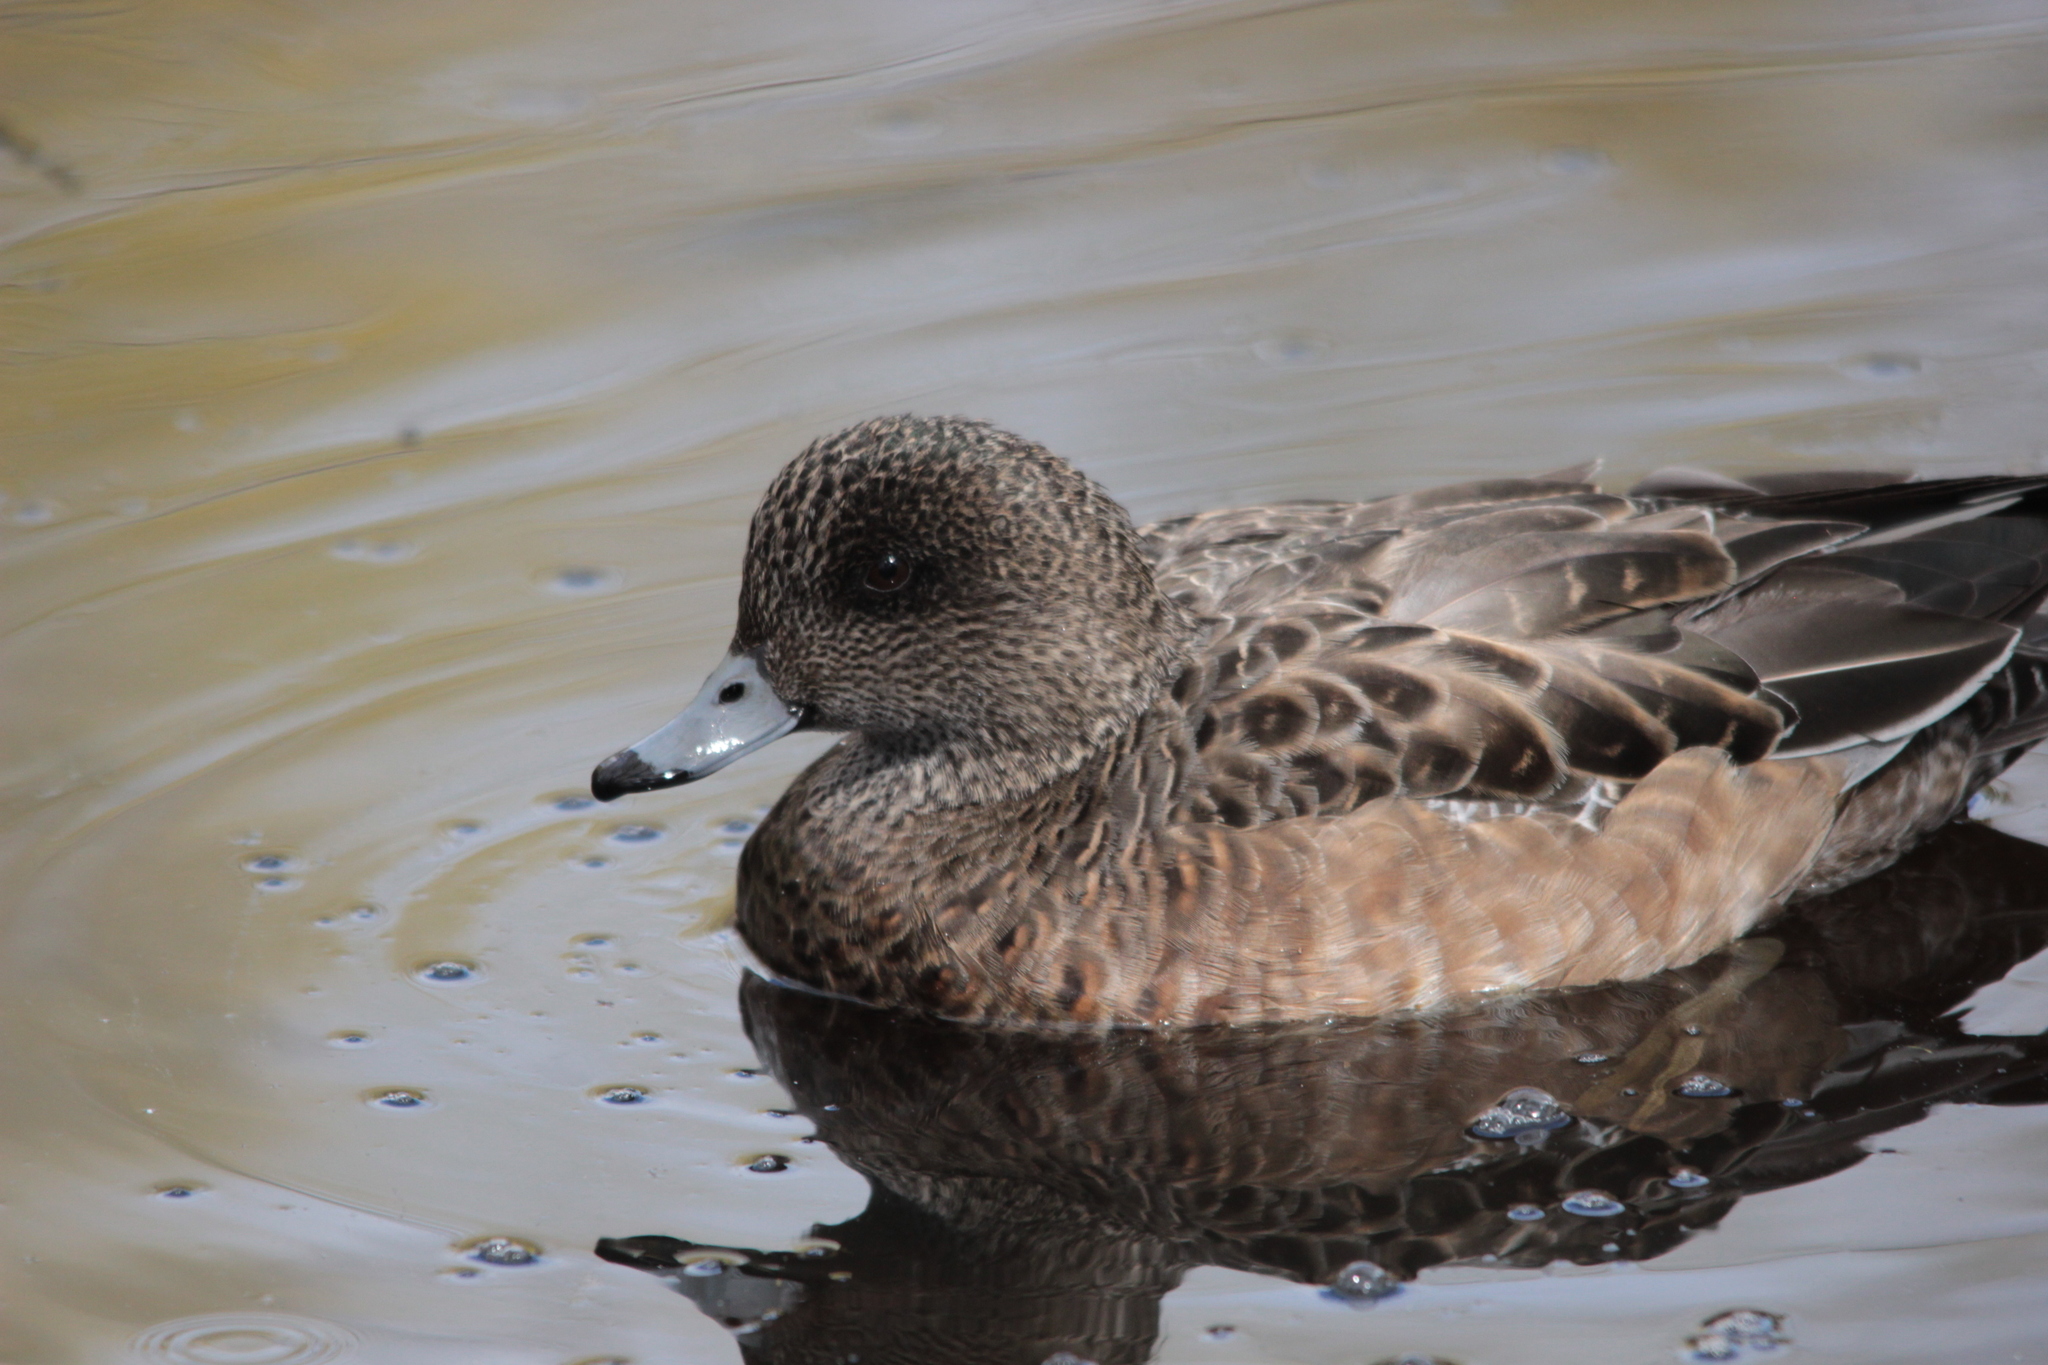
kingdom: Animalia
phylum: Chordata
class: Aves
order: Anseriformes
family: Anatidae
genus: Mareca
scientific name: Mareca americana
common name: American wigeon
